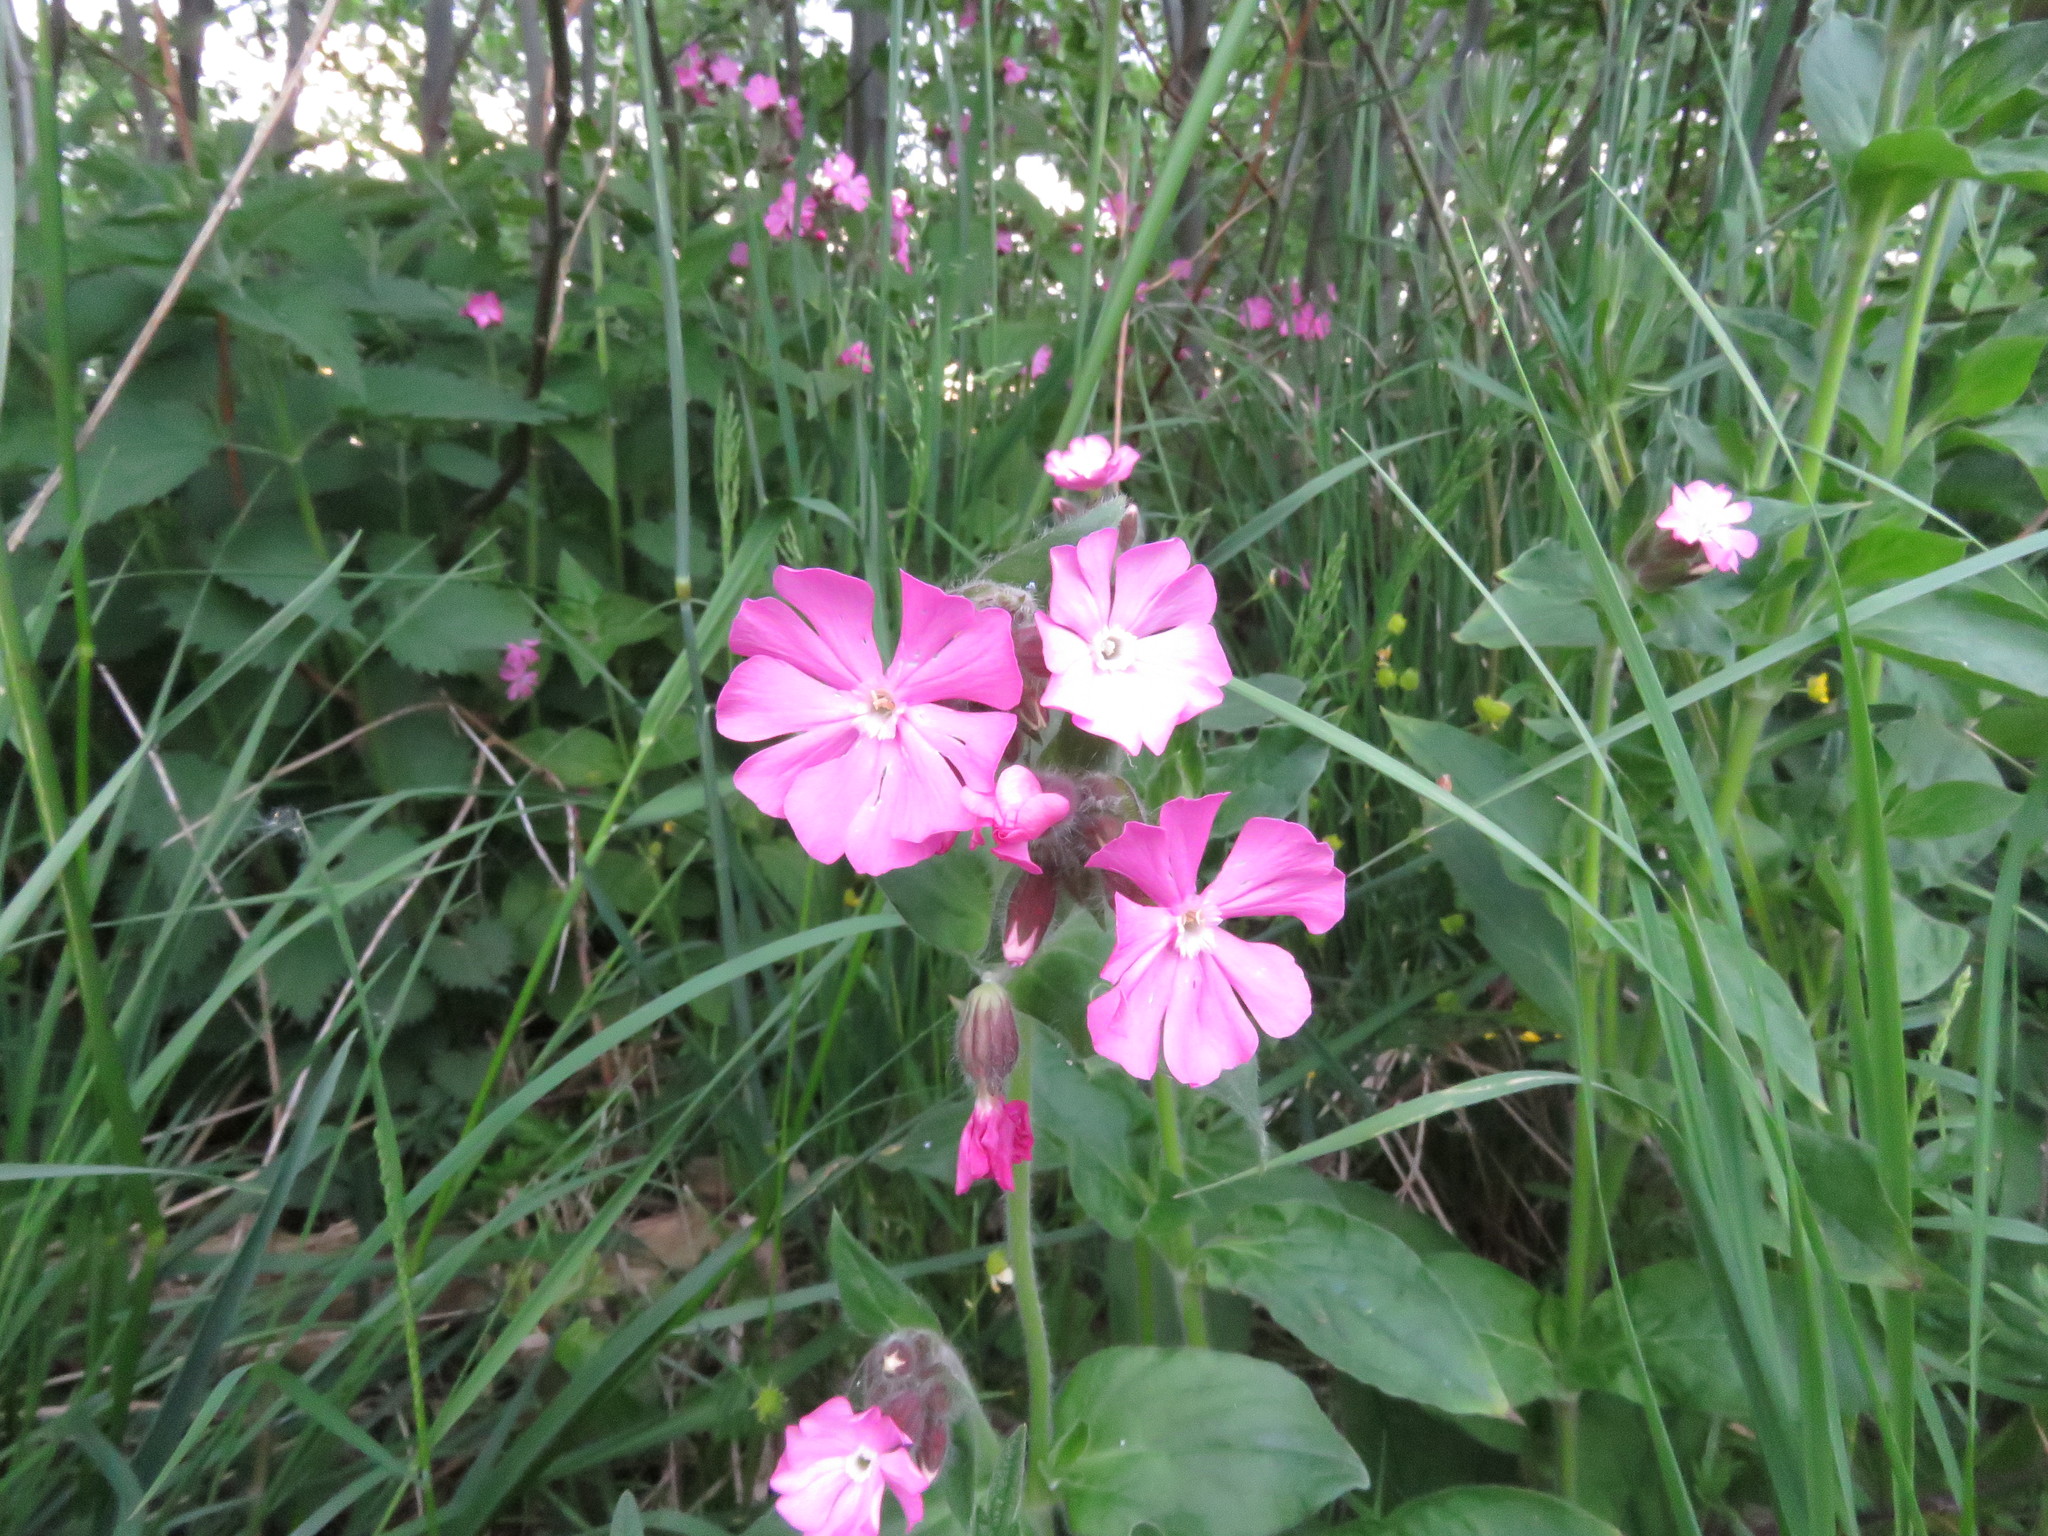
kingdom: Plantae
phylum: Tracheophyta
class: Magnoliopsida
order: Caryophyllales
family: Caryophyllaceae
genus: Silene
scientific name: Silene dioica
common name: Red campion
